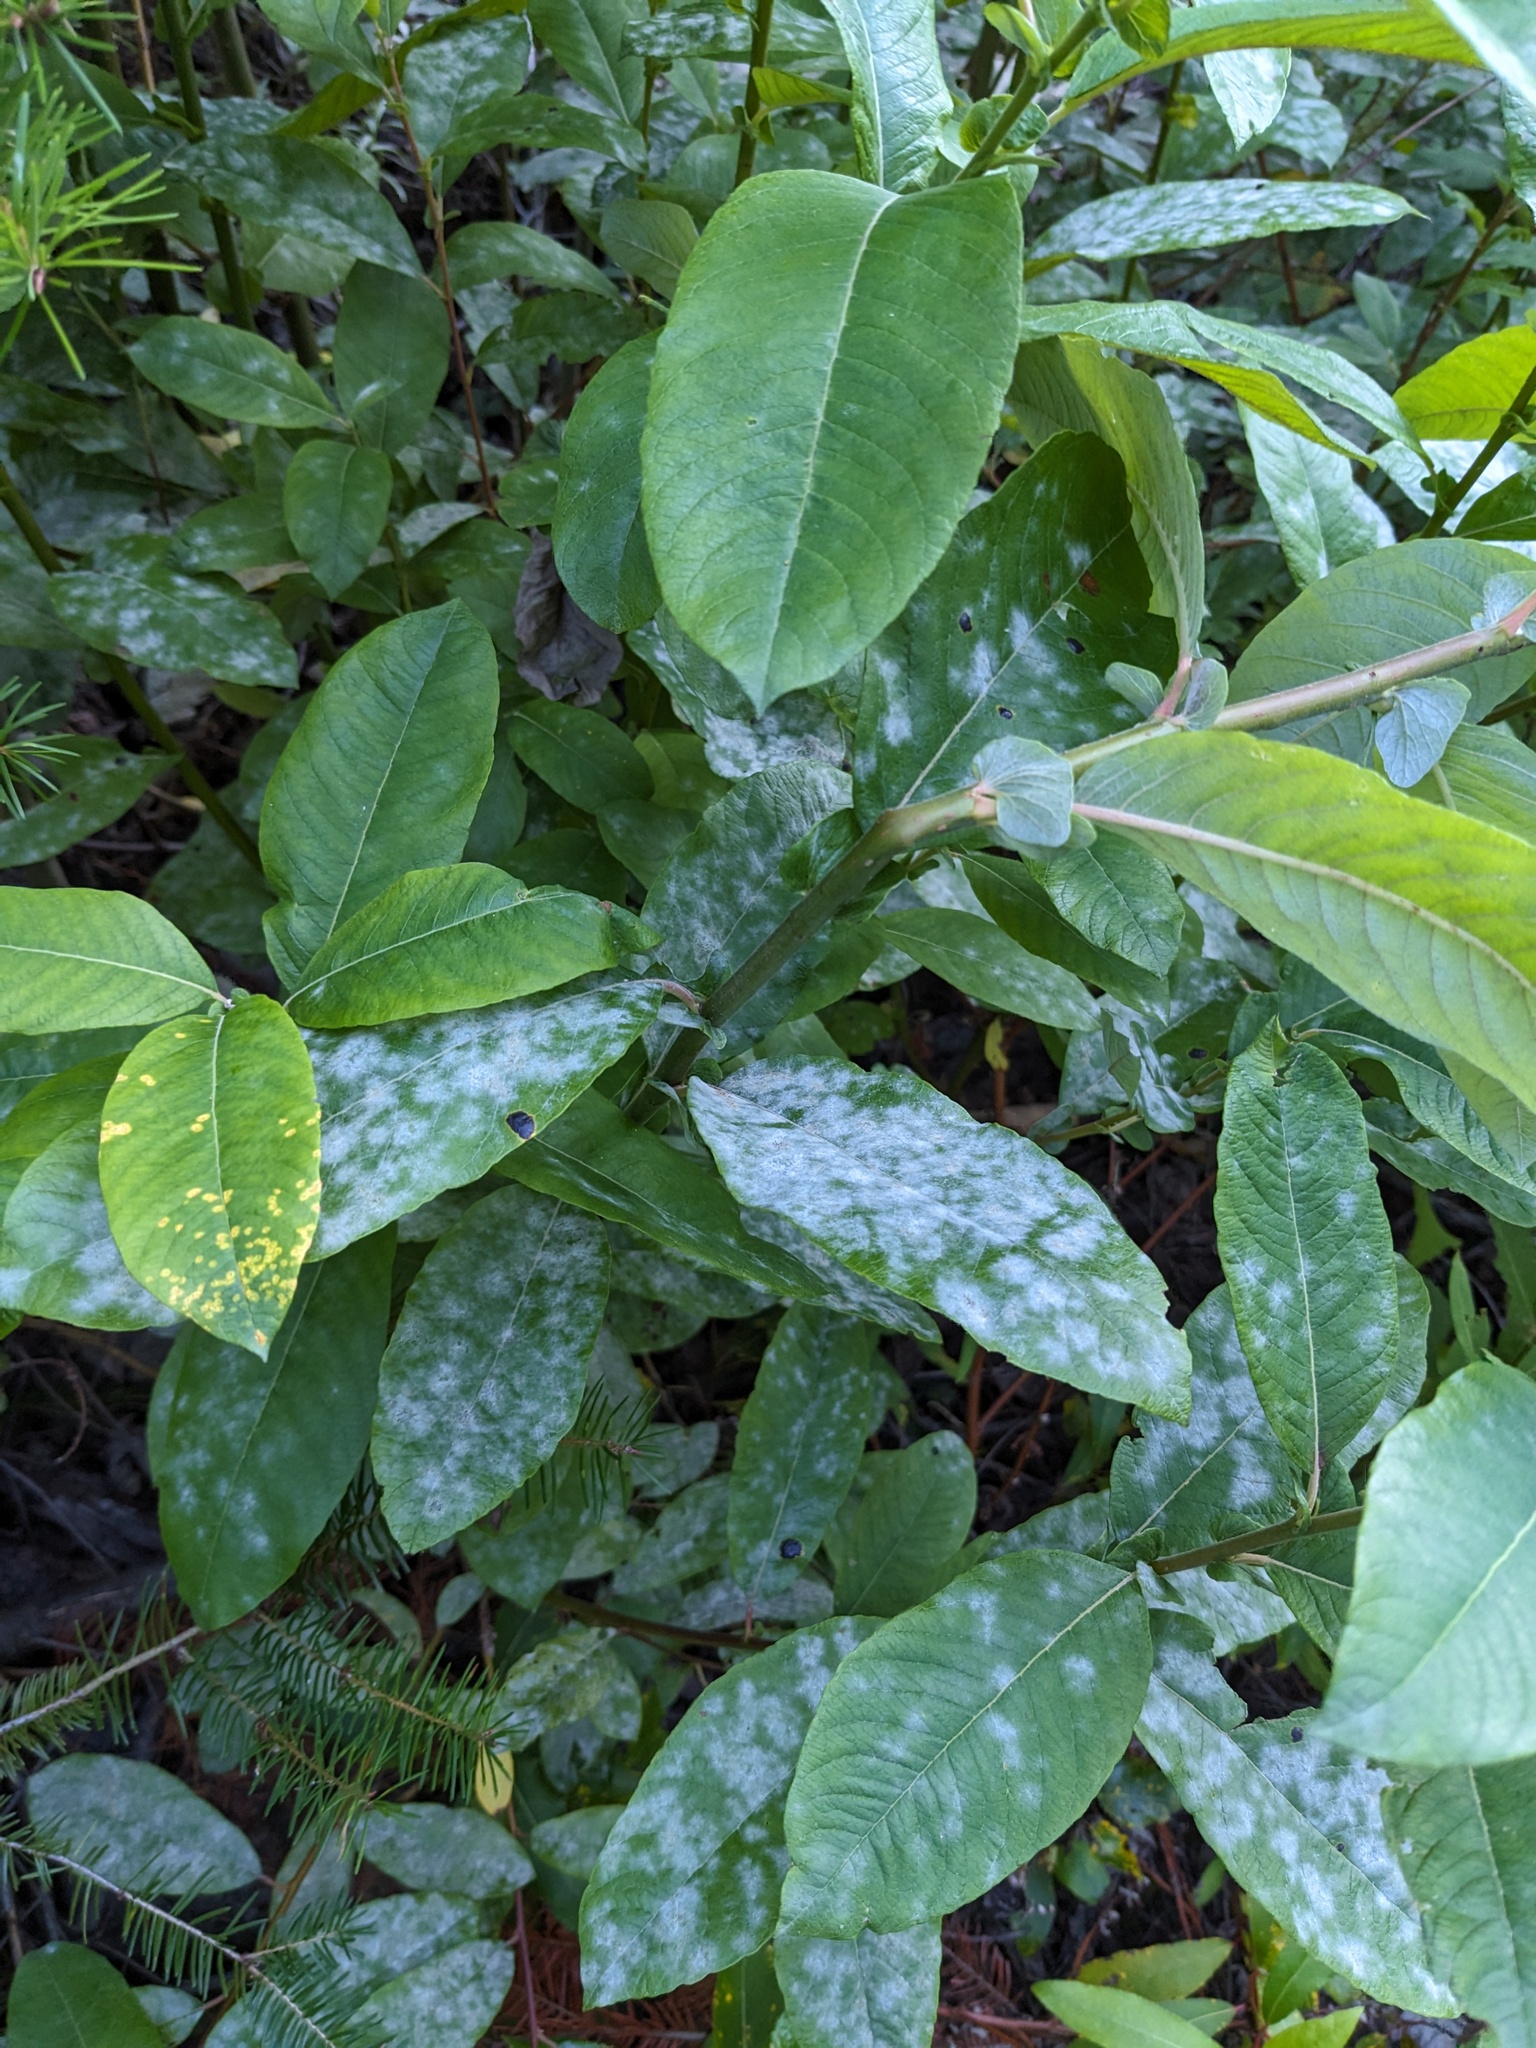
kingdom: Fungi
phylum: Ascomycota
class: Leotiomycetes
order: Helotiales
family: Erysiphaceae
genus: Erysiphe
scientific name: Erysiphe capreae
